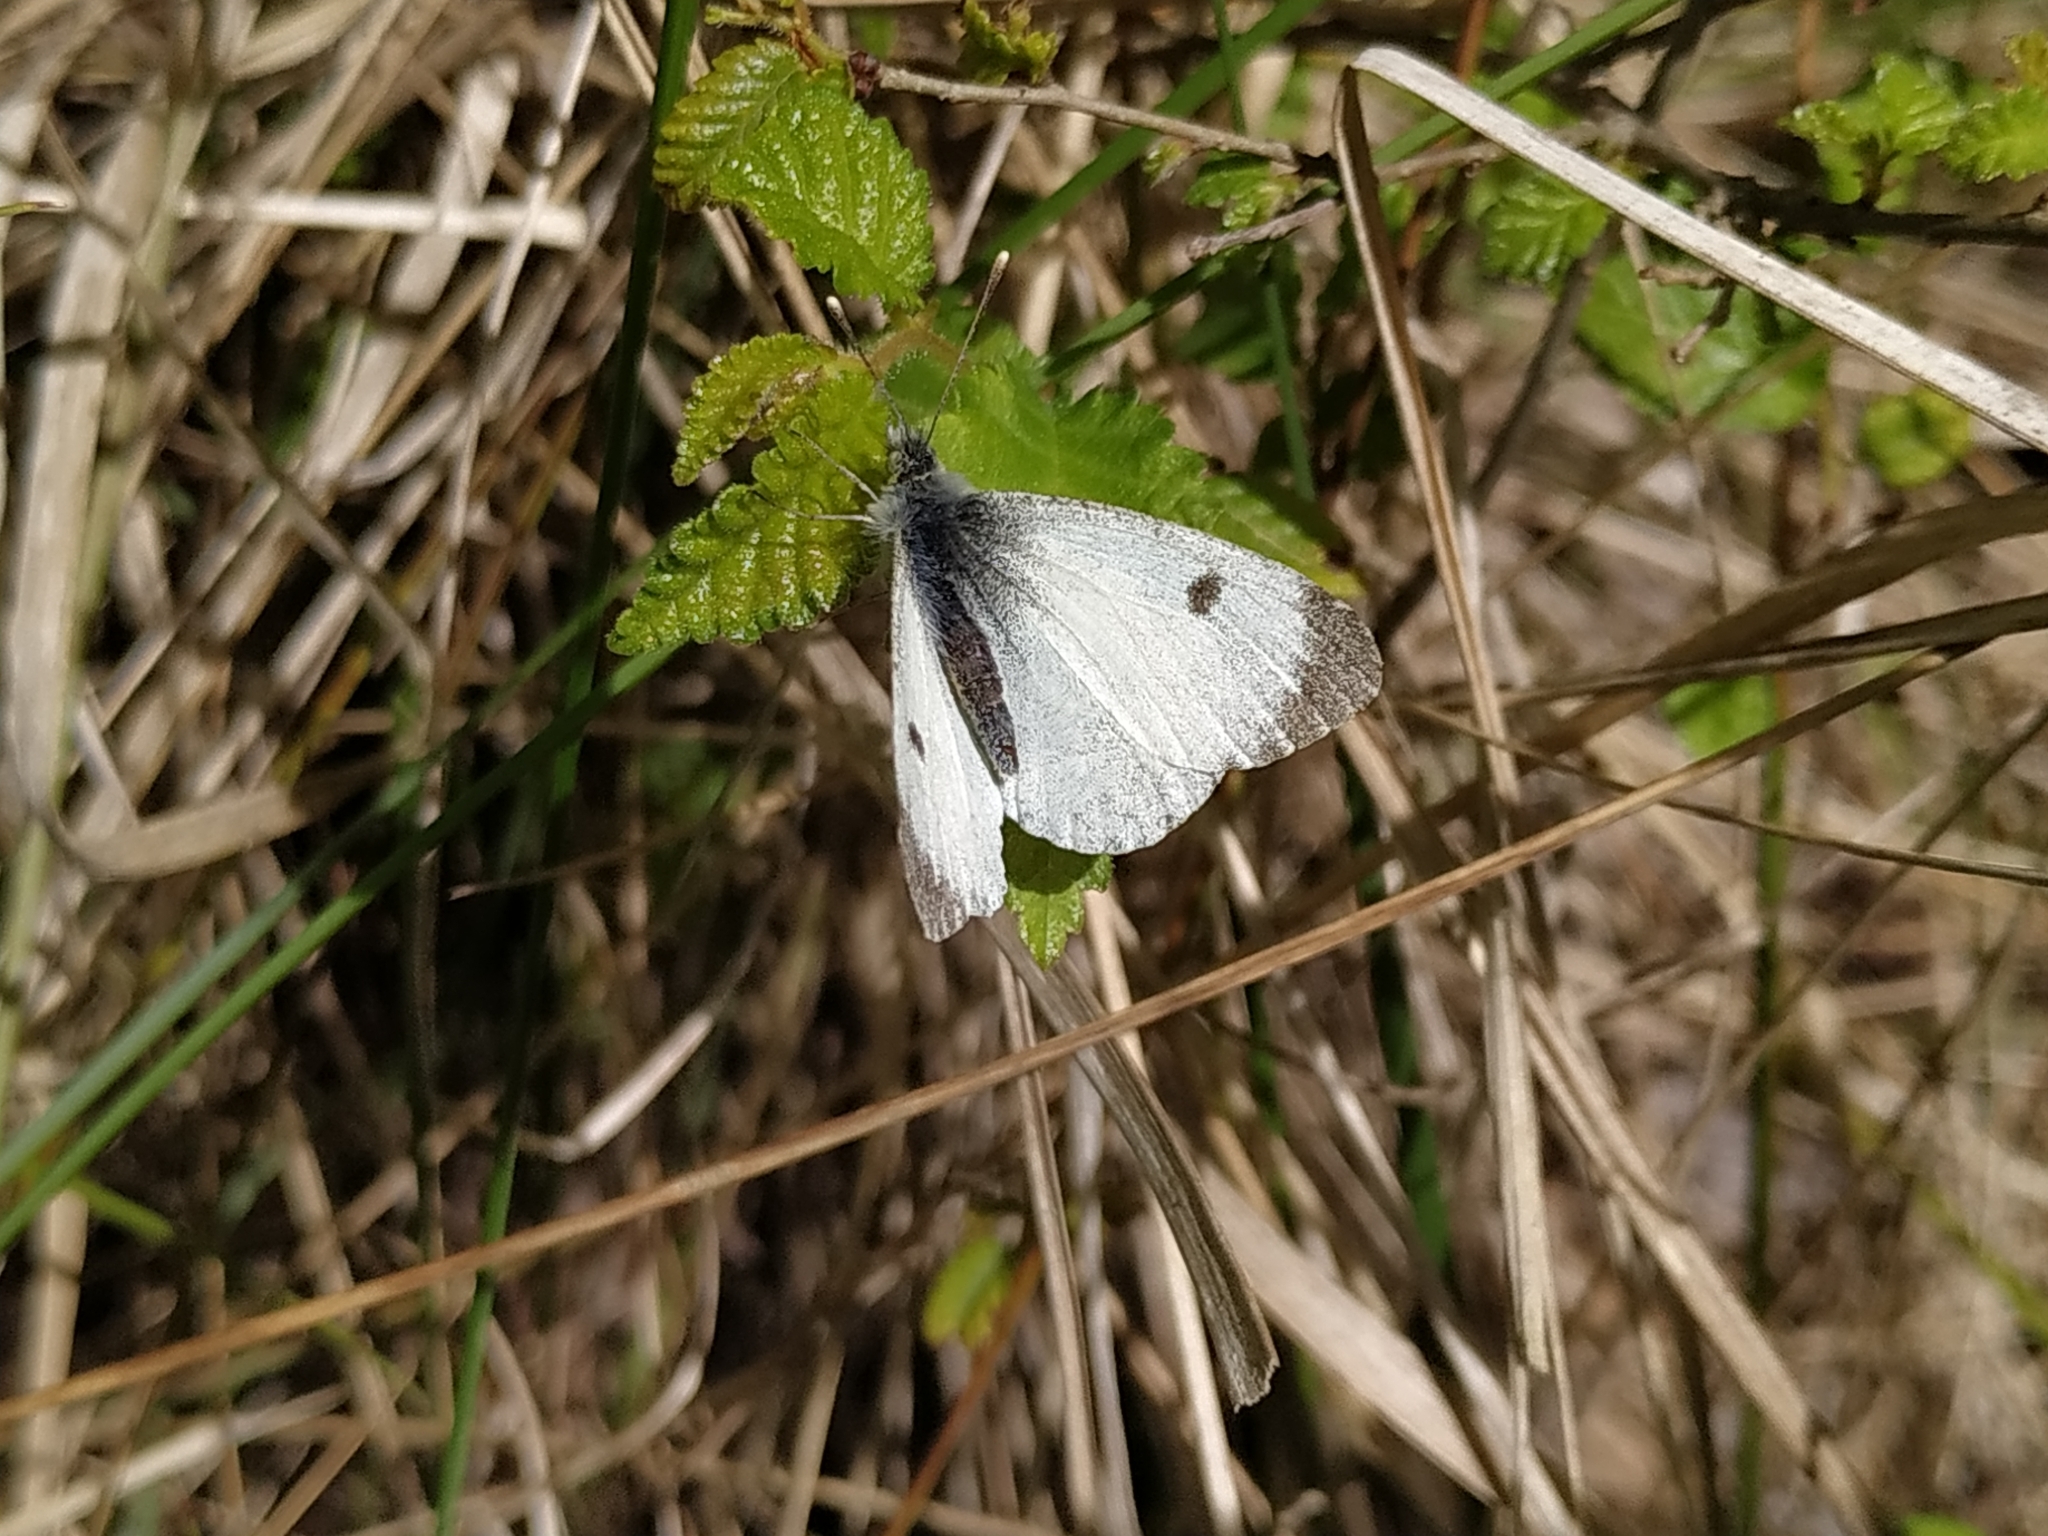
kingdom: Animalia
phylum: Arthropoda
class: Insecta
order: Lepidoptera
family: Pieridae
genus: Anthocharis
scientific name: Anthocharis cardamines
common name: Orange-tip
